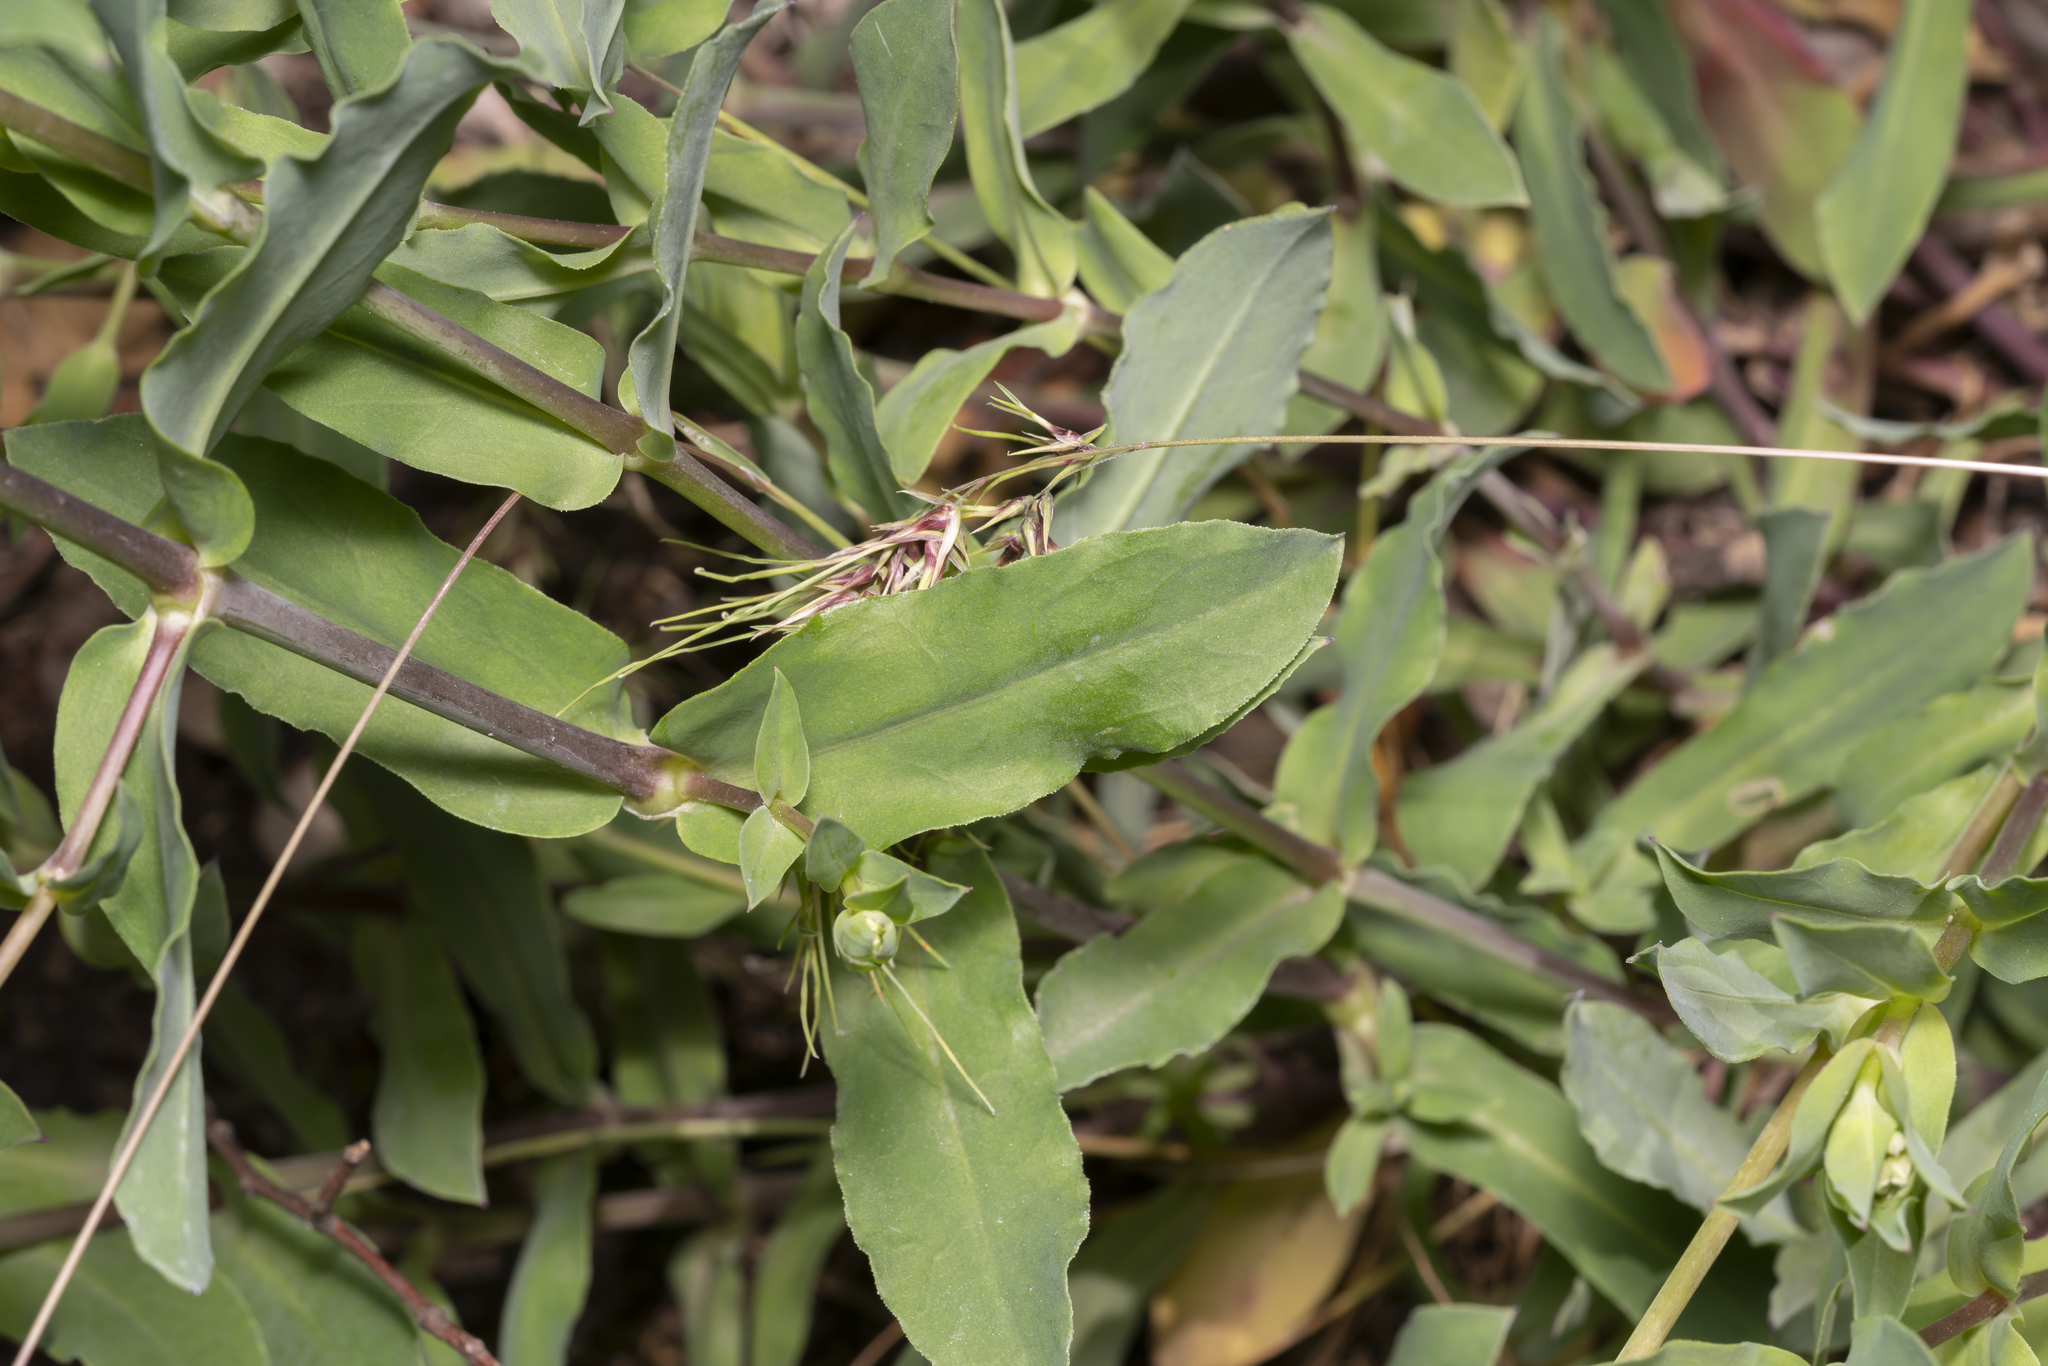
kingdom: Plantae
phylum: Tracheophyta
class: Magnoliopsida
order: Caryophyllales
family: Caryophyllaceae
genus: Silene
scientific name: Silene vulgaris
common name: Bladder campion
